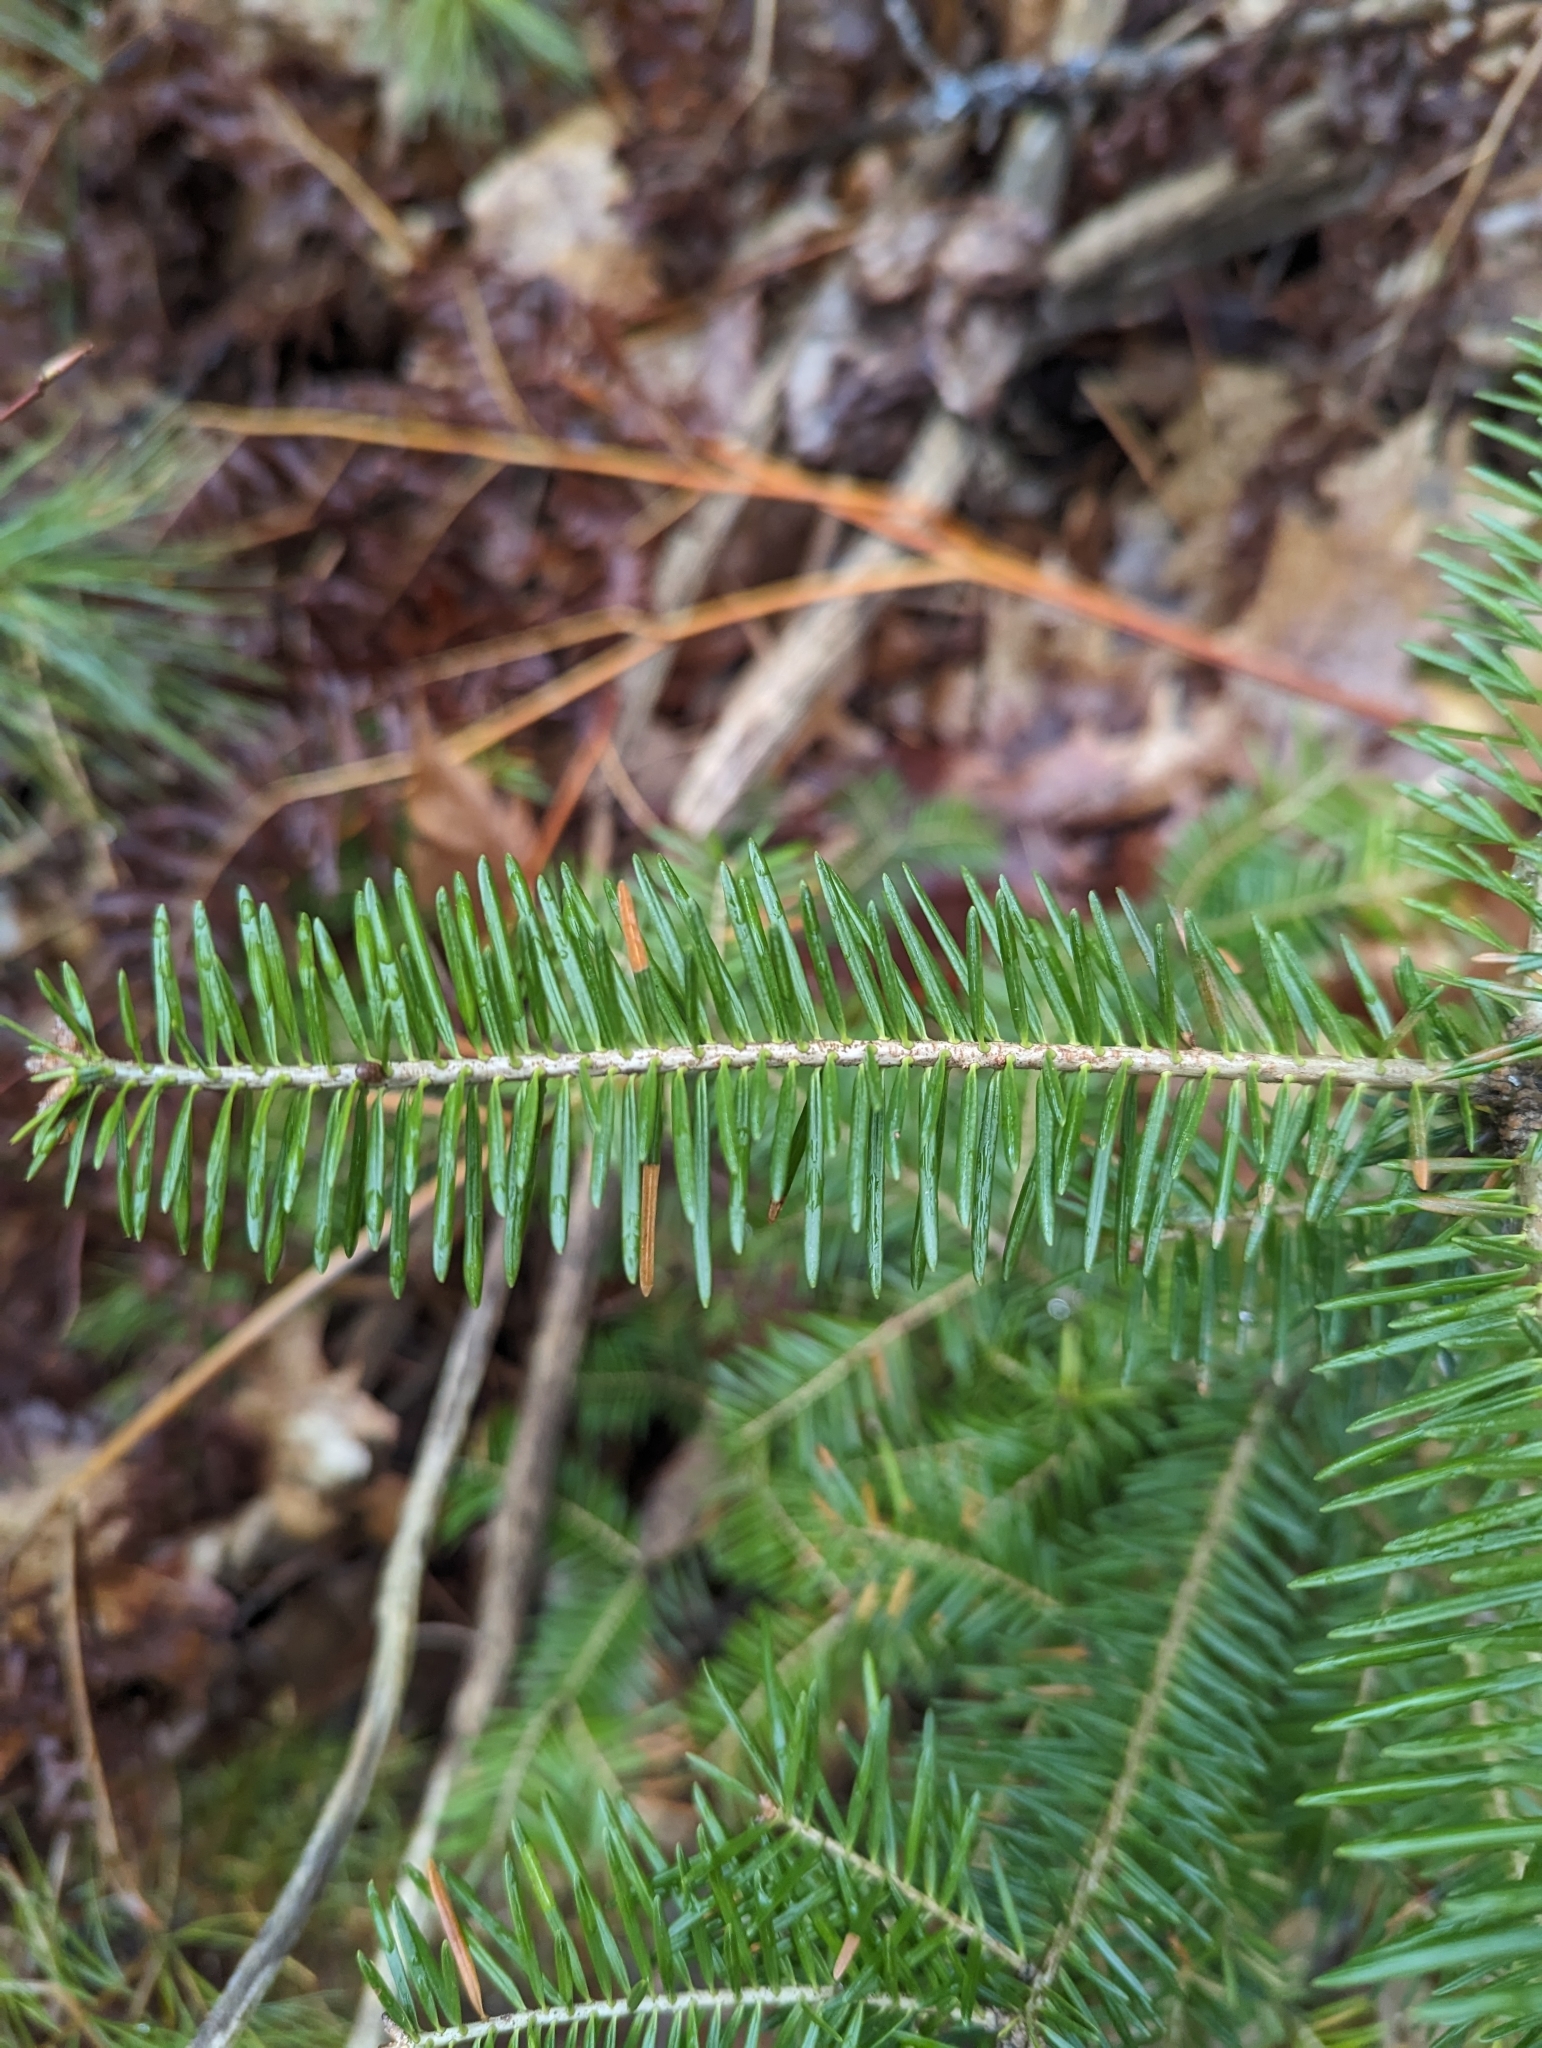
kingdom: Plantae
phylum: Tracheophyta
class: Pinopsida
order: Pinales
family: Pinaceae
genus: Abies
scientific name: Abies balsamea
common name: Balsam fir
